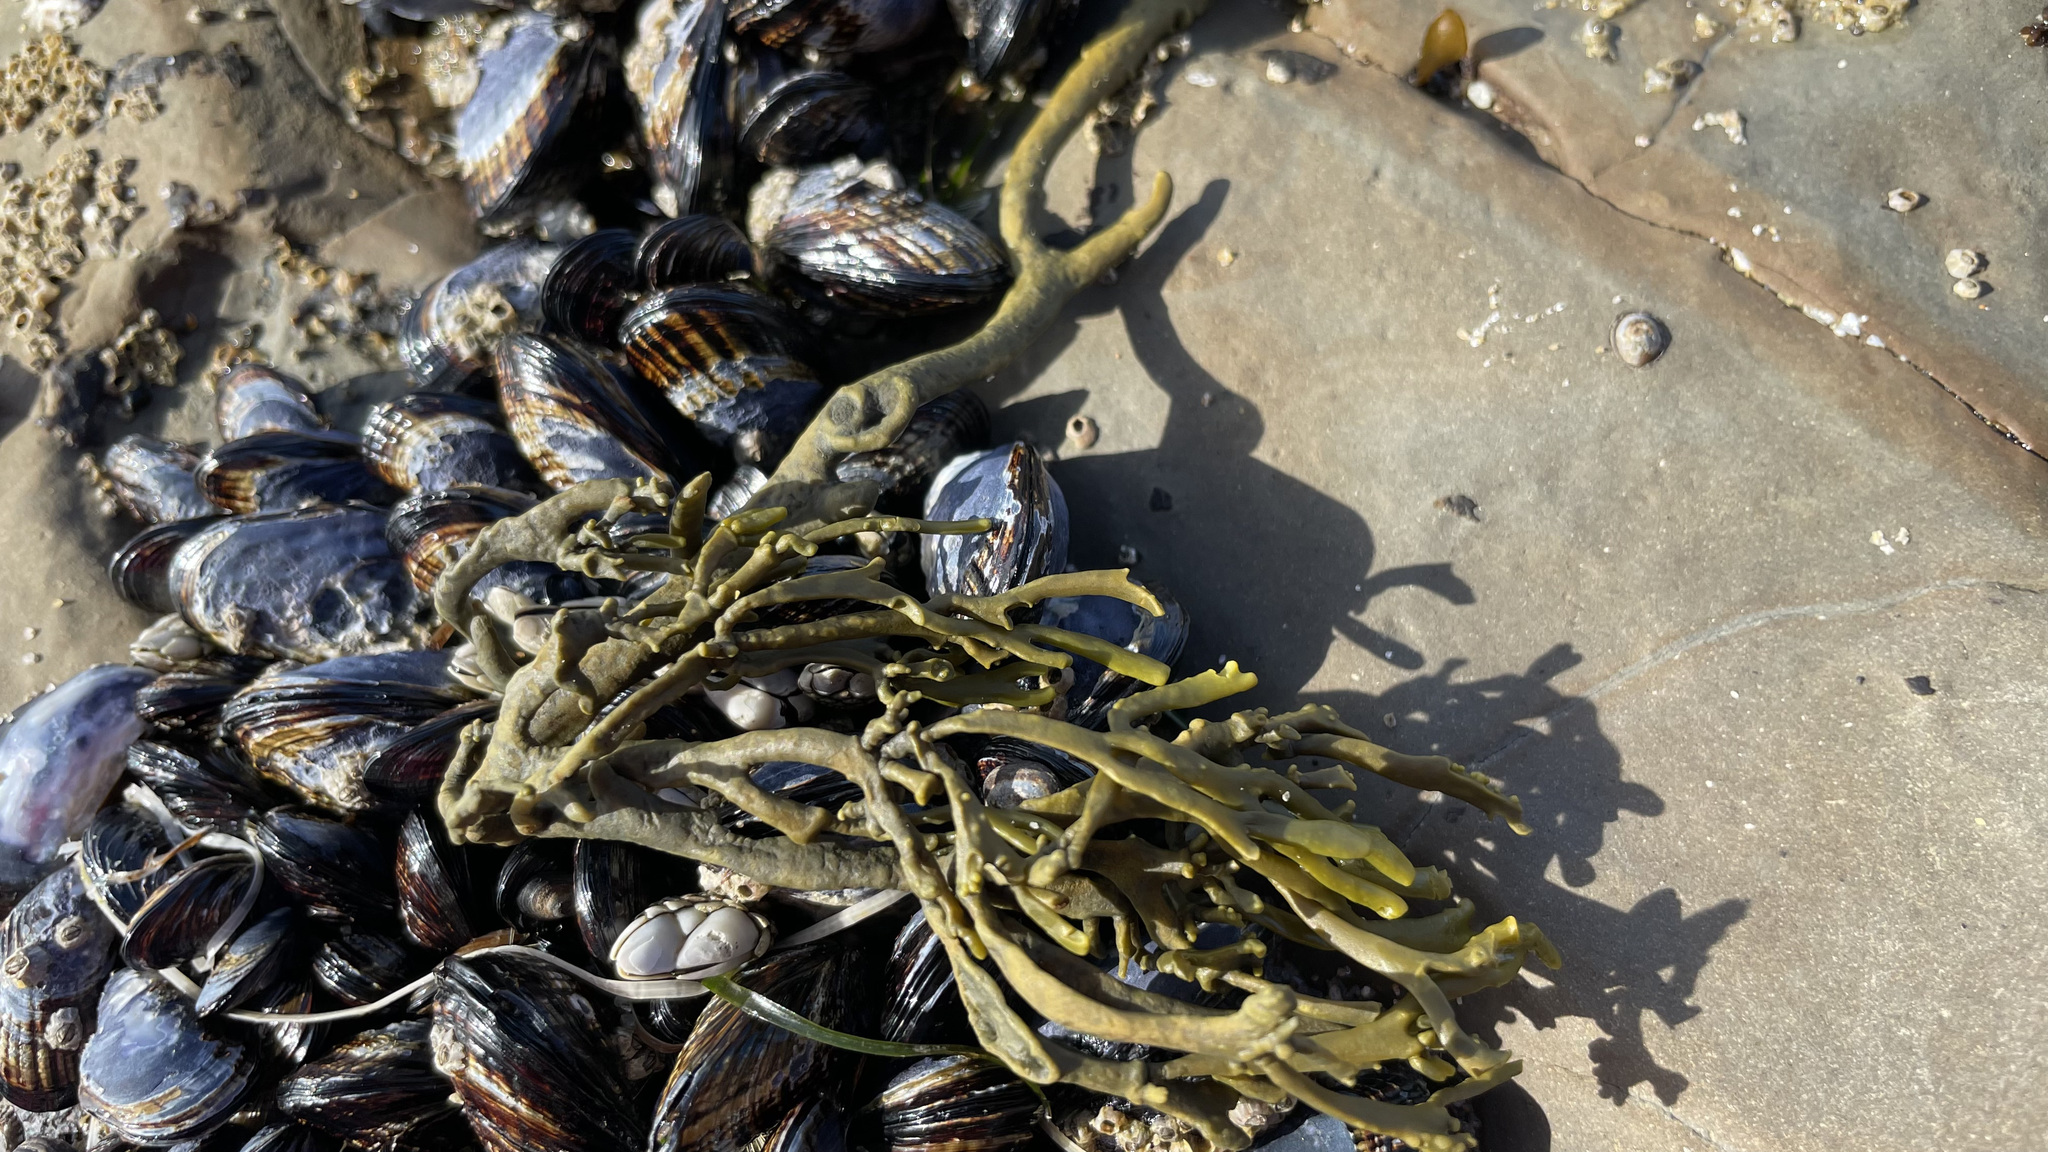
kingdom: Chromista
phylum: Ochrophyta
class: Phaeophyceae
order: Fucales
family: Fucaceae
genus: Silvetia
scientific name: Silvetia
